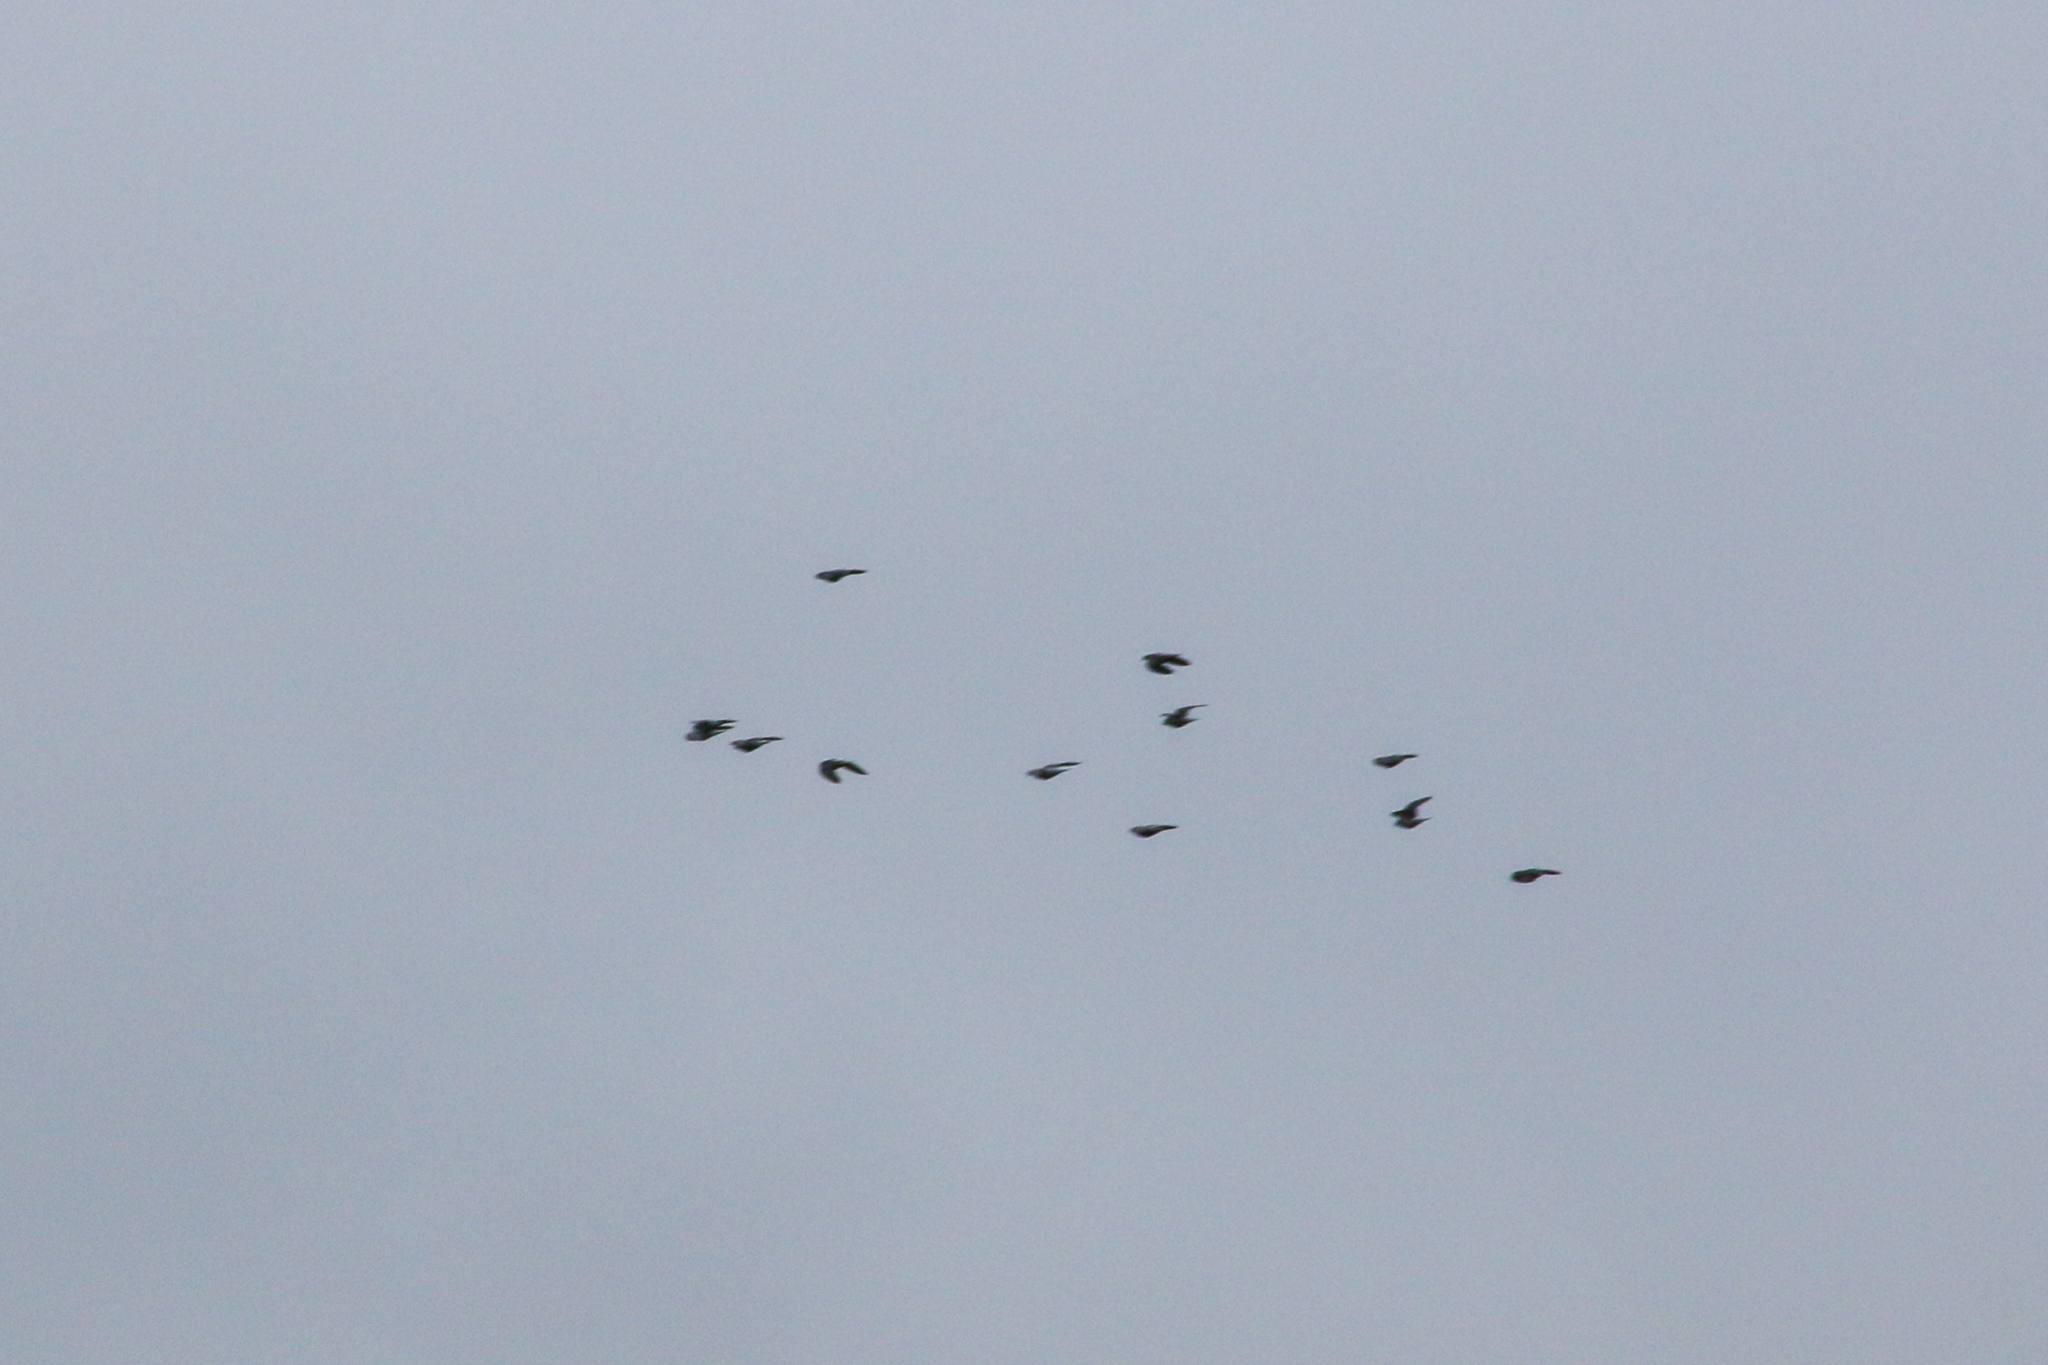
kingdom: Animalia
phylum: Chordata
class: Aves
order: Columbiformes
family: Columbidae
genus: Columba
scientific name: Columba livia
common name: Rock pigeon
